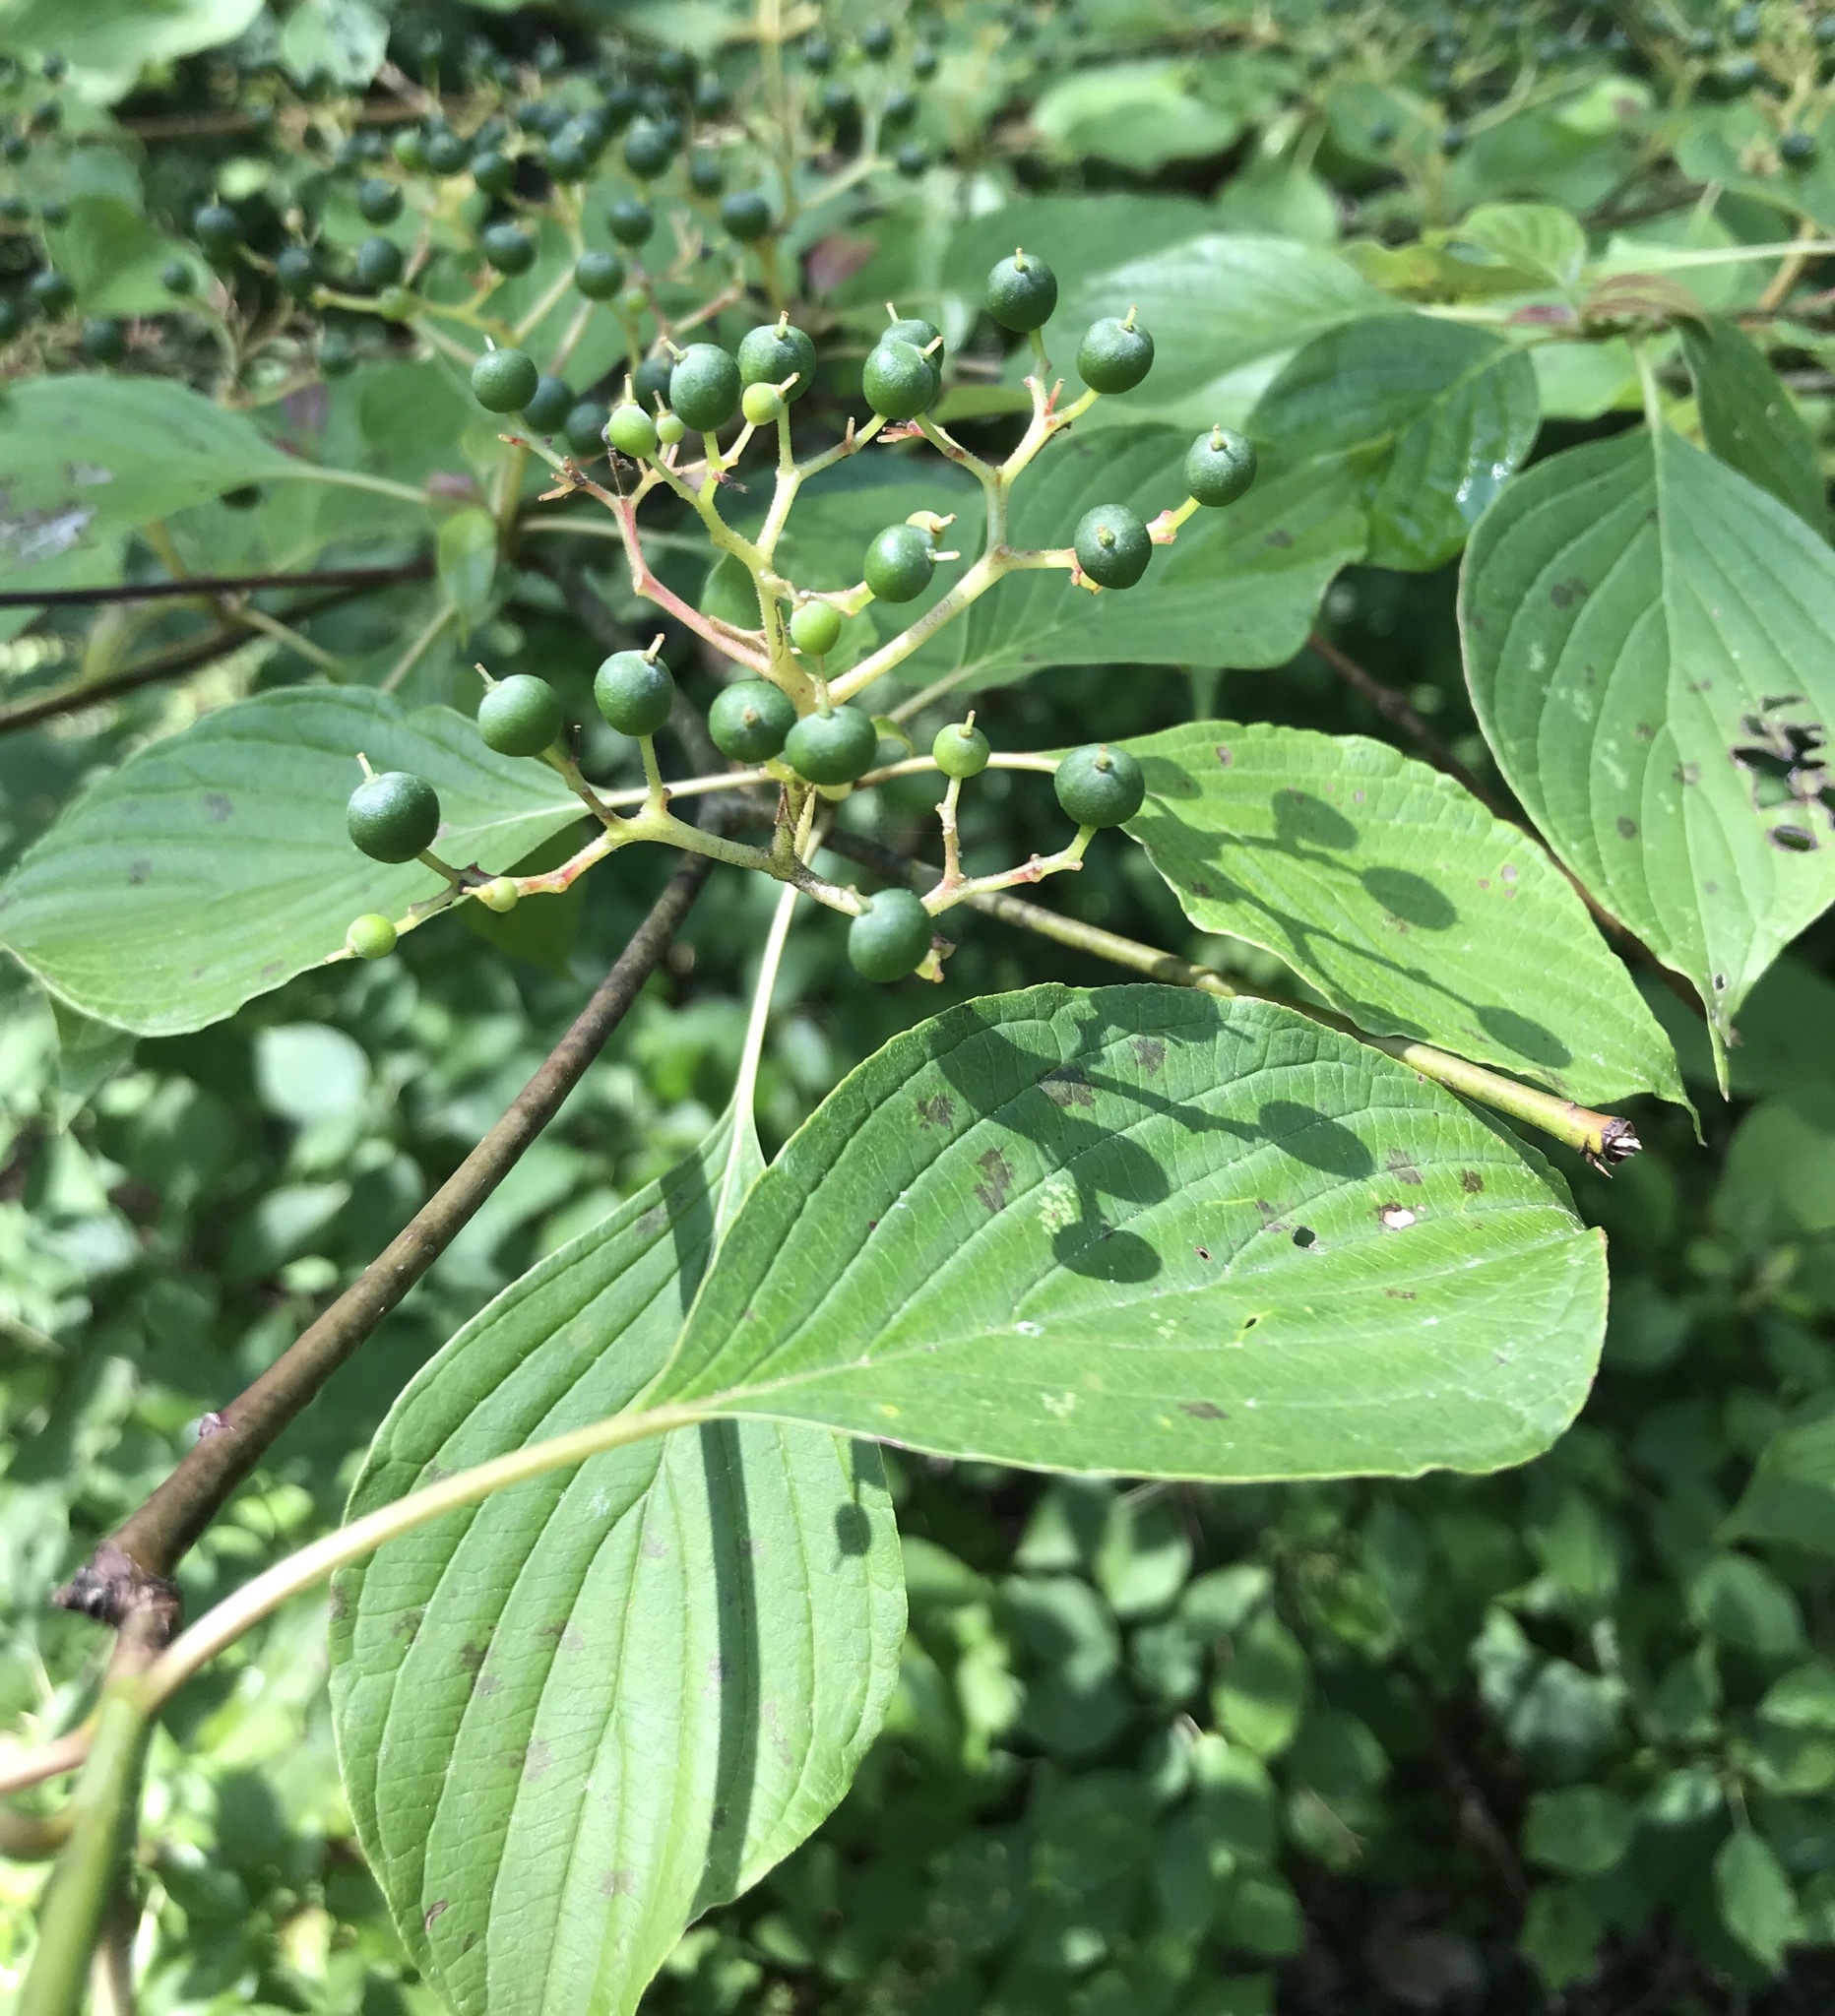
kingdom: Plantae
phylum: Tracheophyta
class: Magnoliopsida
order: Cornales
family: Cornaceae
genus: Cornus
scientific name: Cornus alternifolia
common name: Pagoda dogwood
